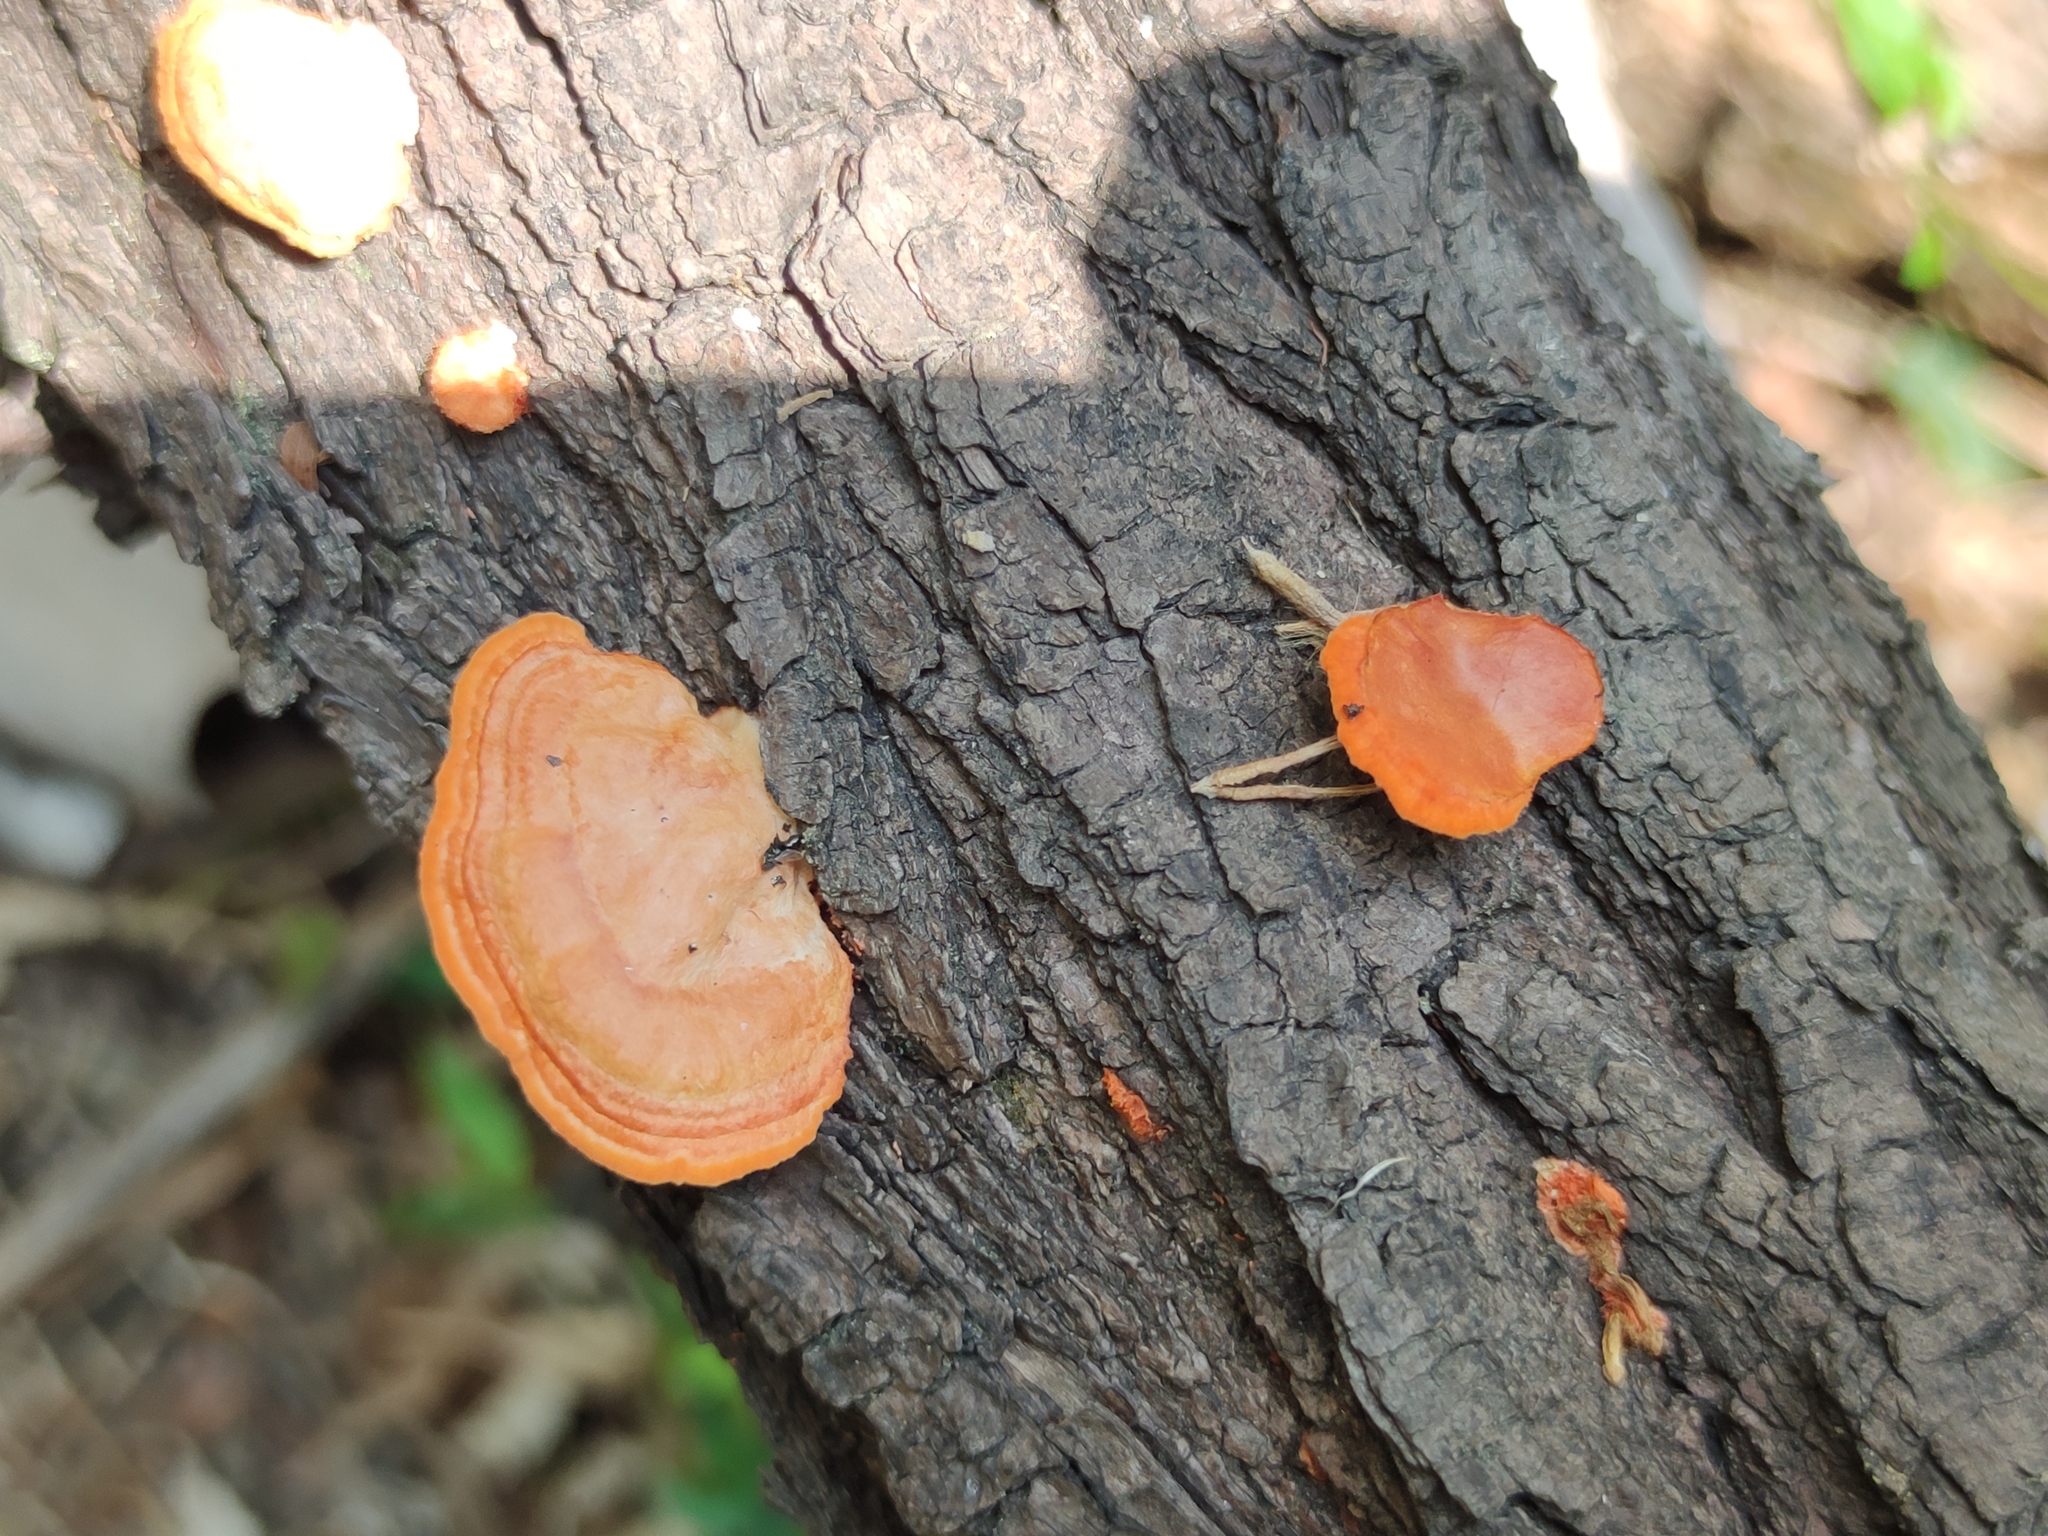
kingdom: Fungi
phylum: Basidiomycota
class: Agaricomycetes
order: Polyporales
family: Polyporaceae
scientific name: Polyporaceae
